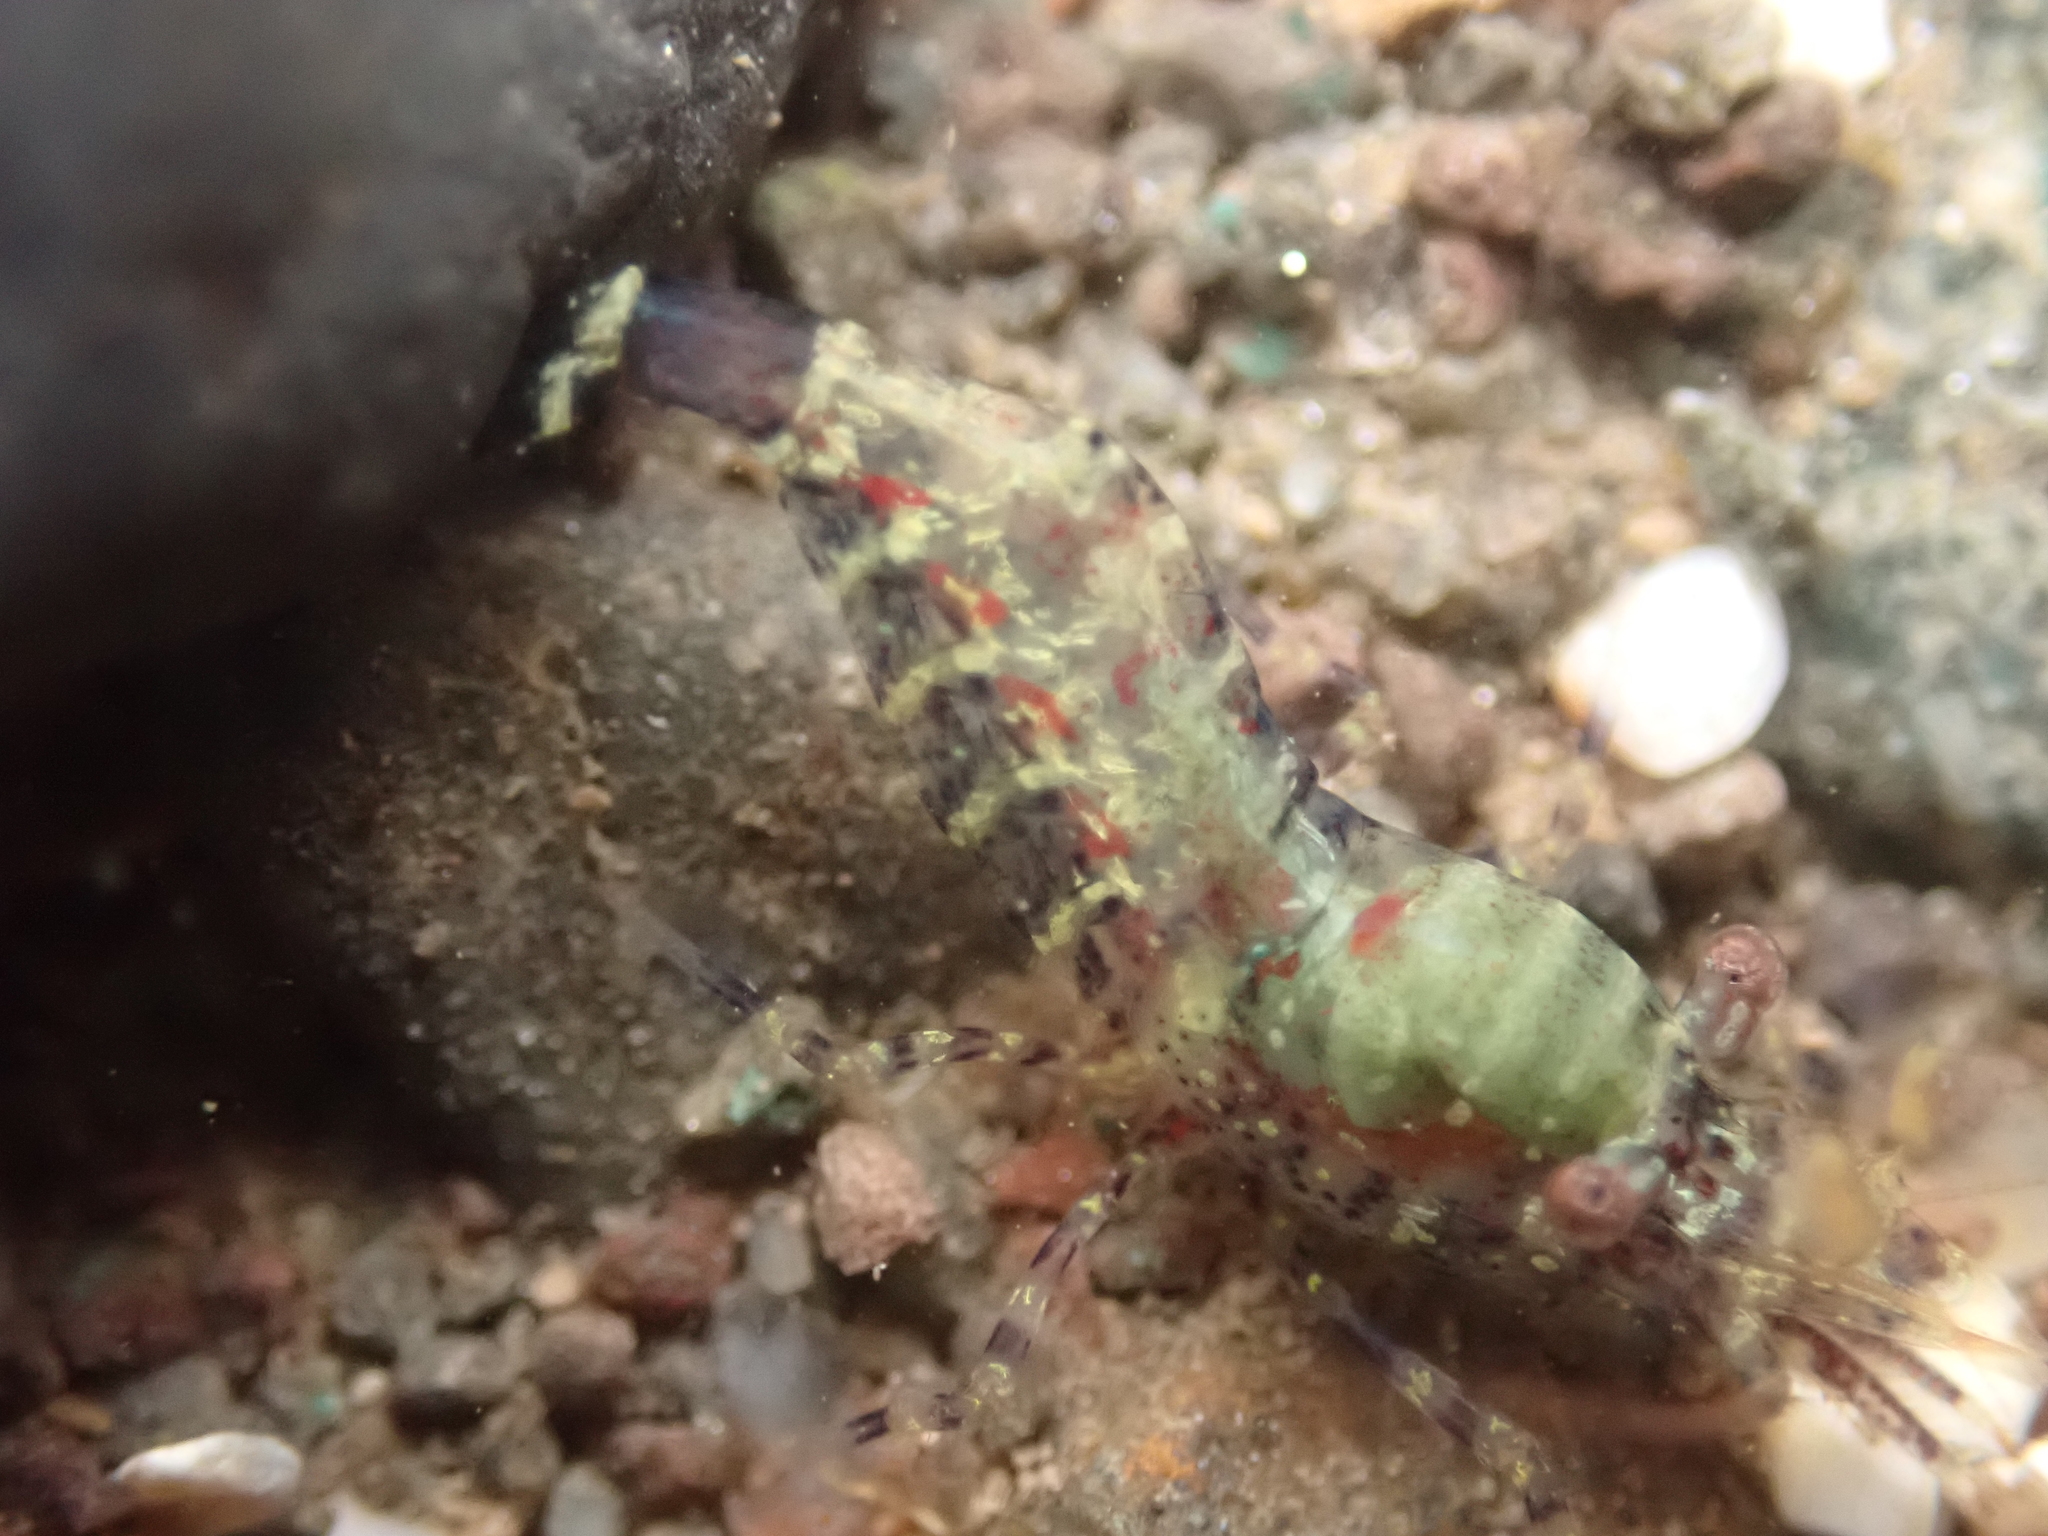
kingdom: Animalia
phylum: Arthropoda
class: Malacostraca
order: Decapoda
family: Thoridae
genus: Eualus
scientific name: Eualus pusiolus
